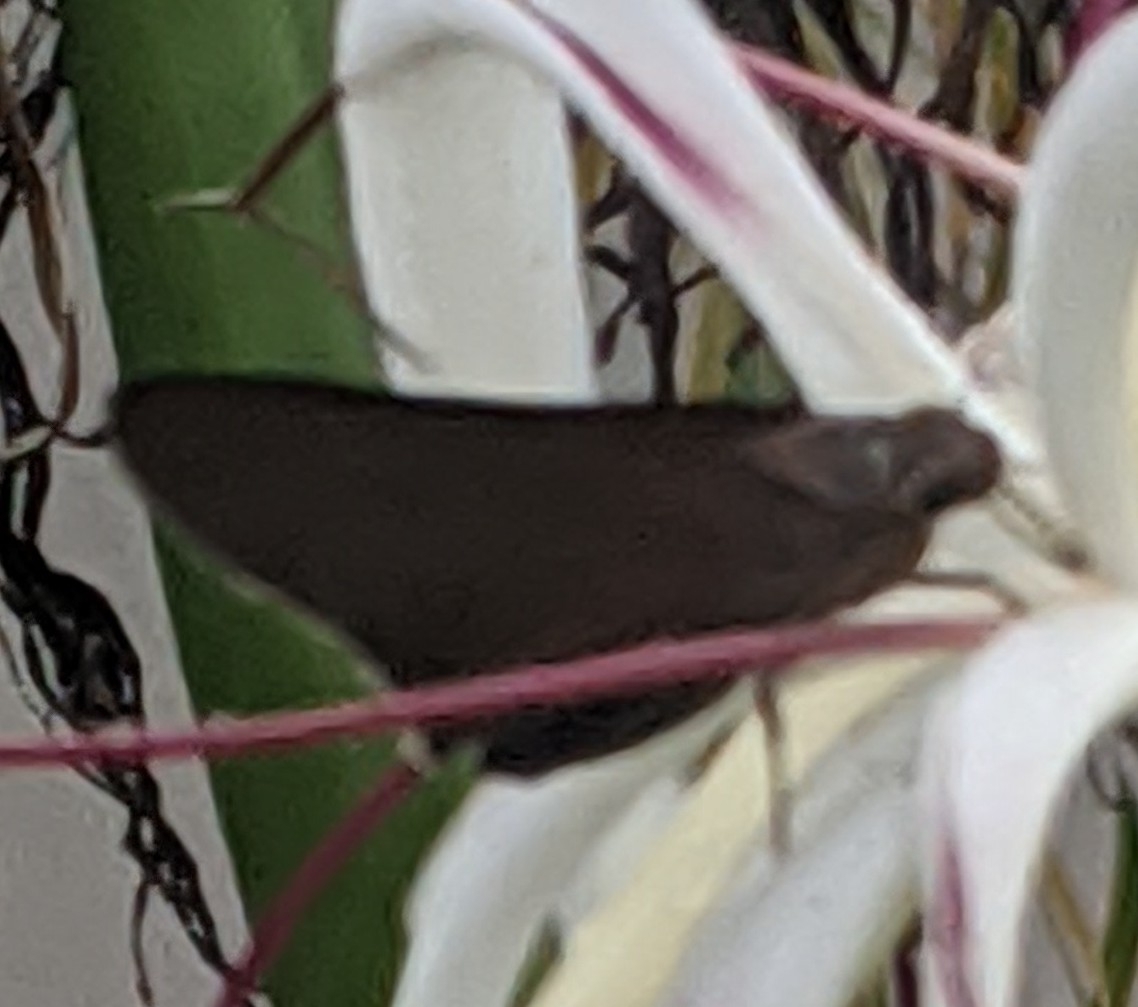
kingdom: Animalia
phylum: Arthropoda
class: Insecta
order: Lepidoptera
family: Hesperiidae
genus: Asbolis
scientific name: Asbolis capucinus
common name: Monk skipper
